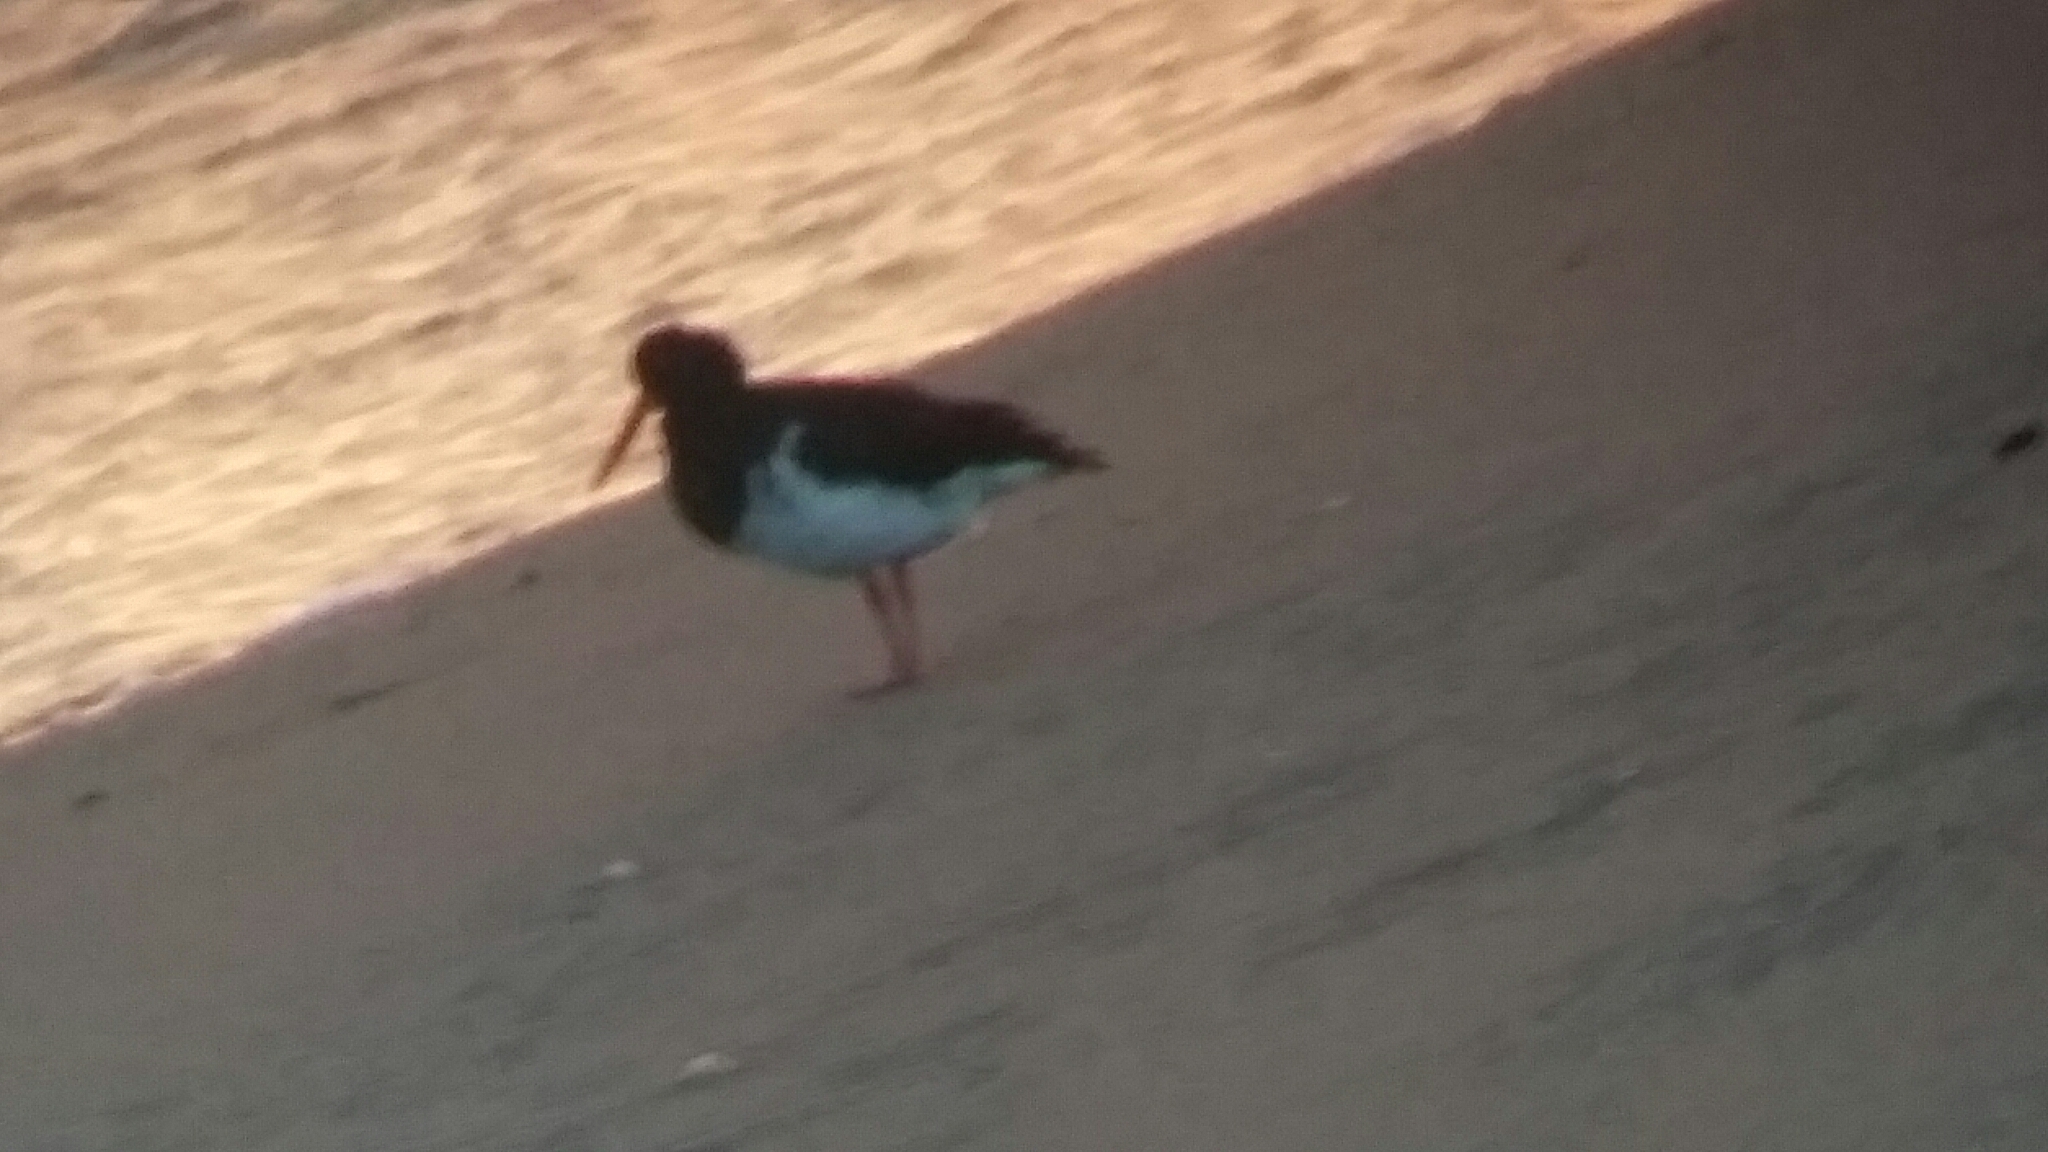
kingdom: Animalia
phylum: Chordata
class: Aves
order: Charadriiformes
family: Haematopodidae
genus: Haematopus
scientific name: Haematopus finschi
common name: South island oystercatcher
